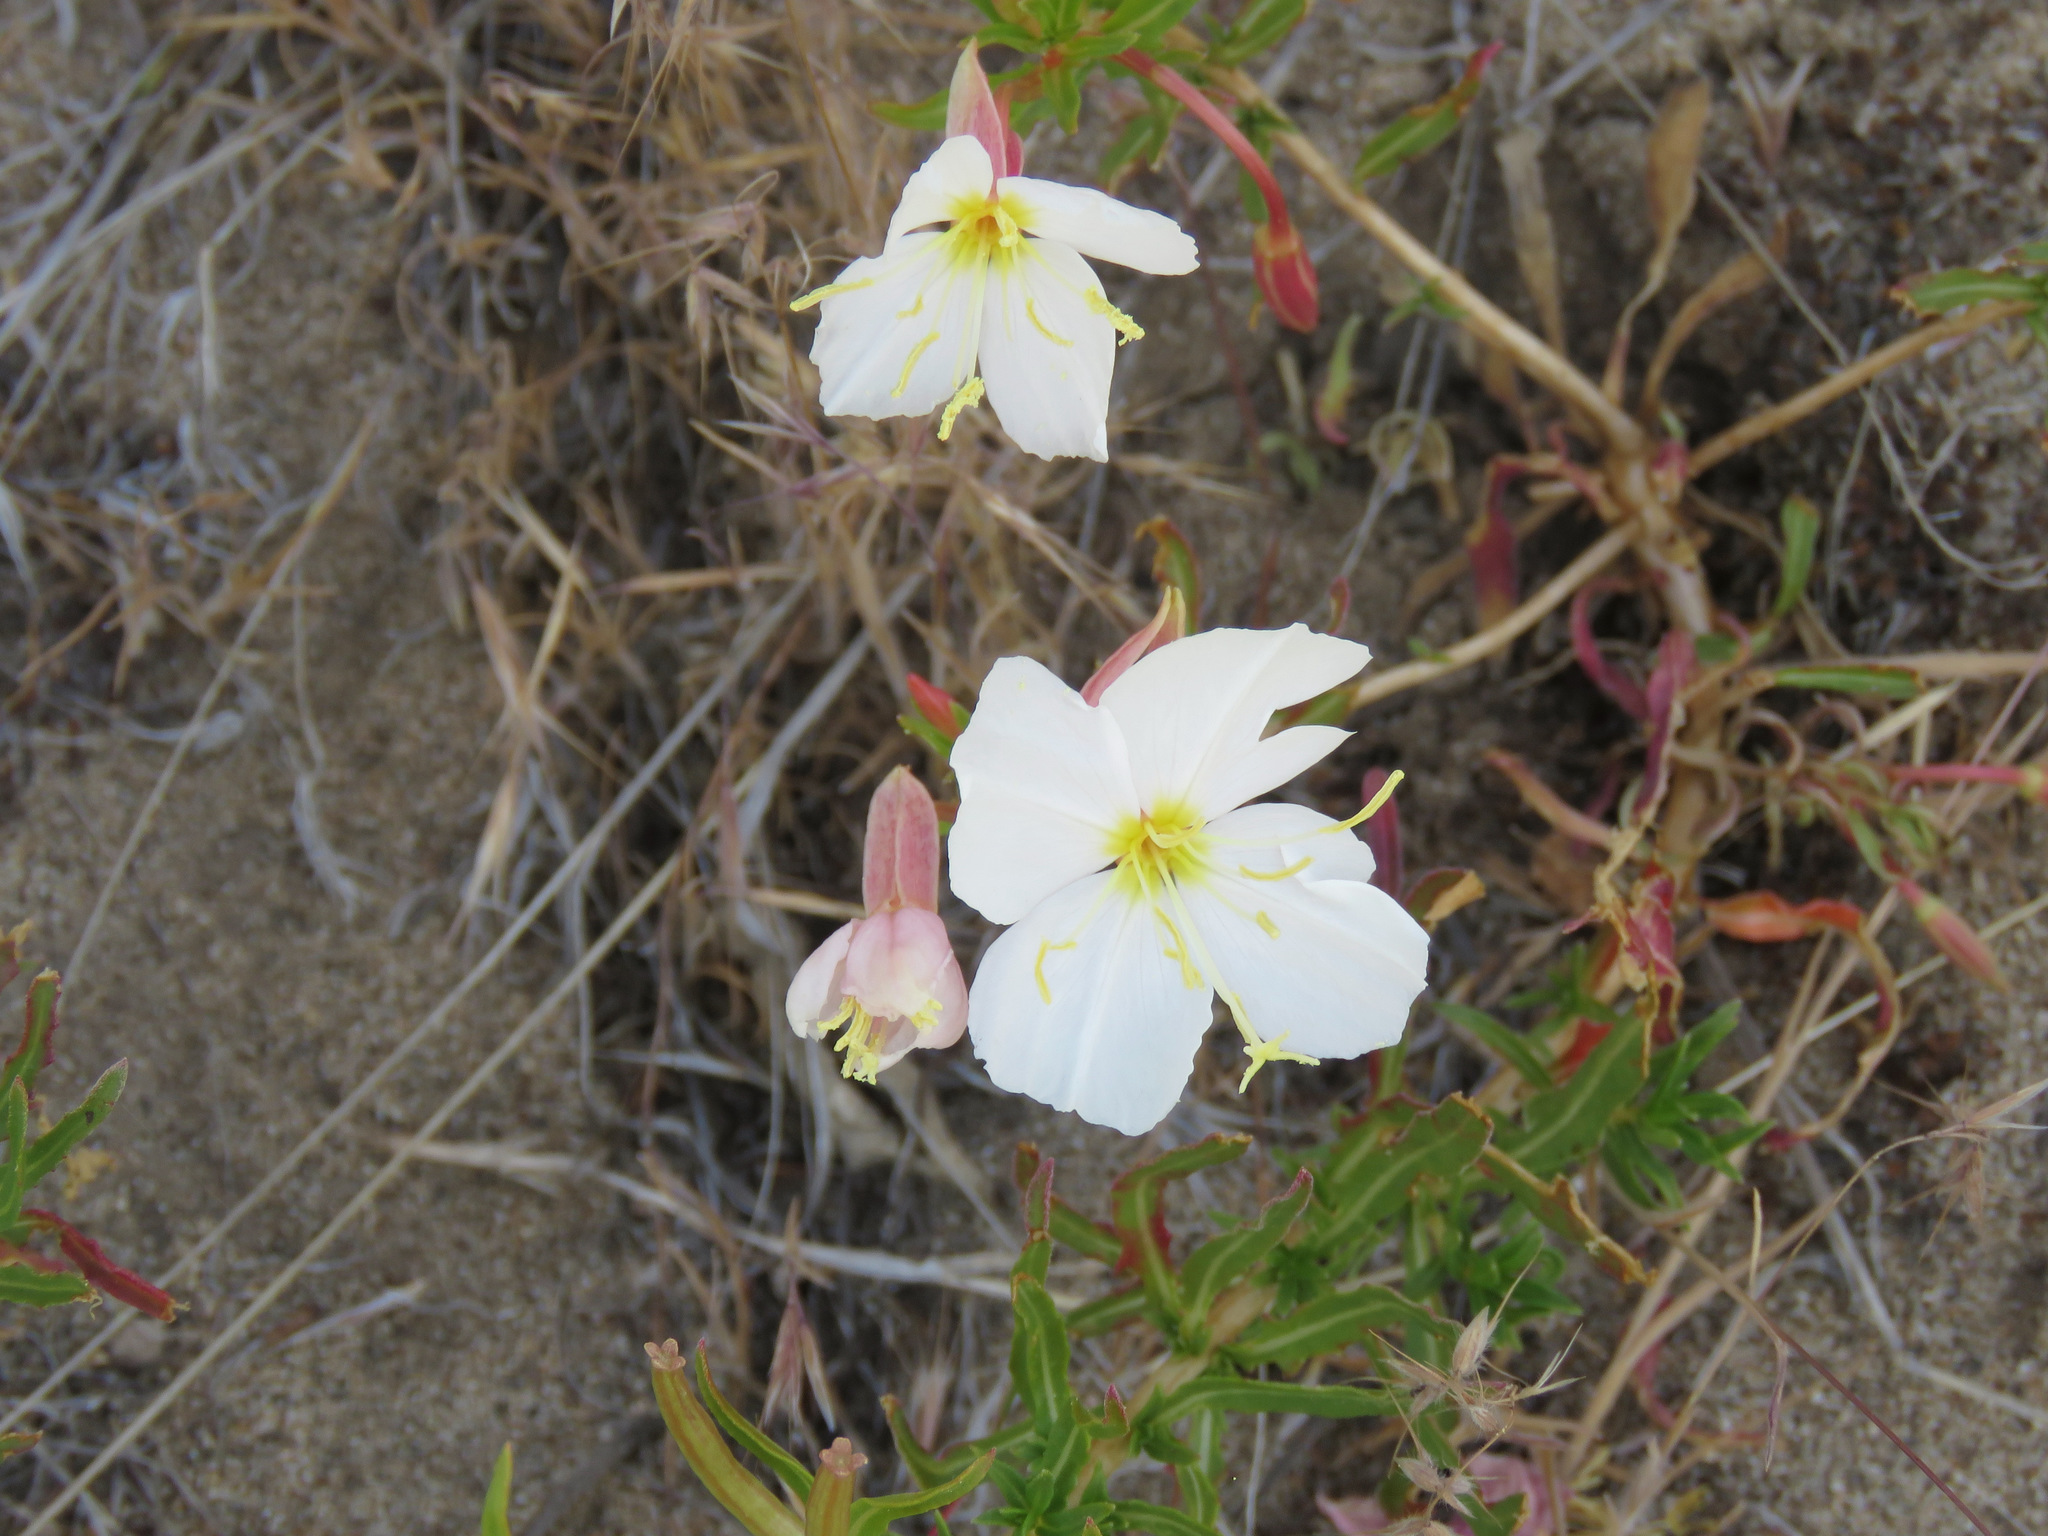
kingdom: Plantae
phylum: Tracheophyta
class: Magnoliopsida
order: Myrtales
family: Onagraceae
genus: Oenothera
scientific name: Oenothera pallida
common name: Pale evening-primrose
